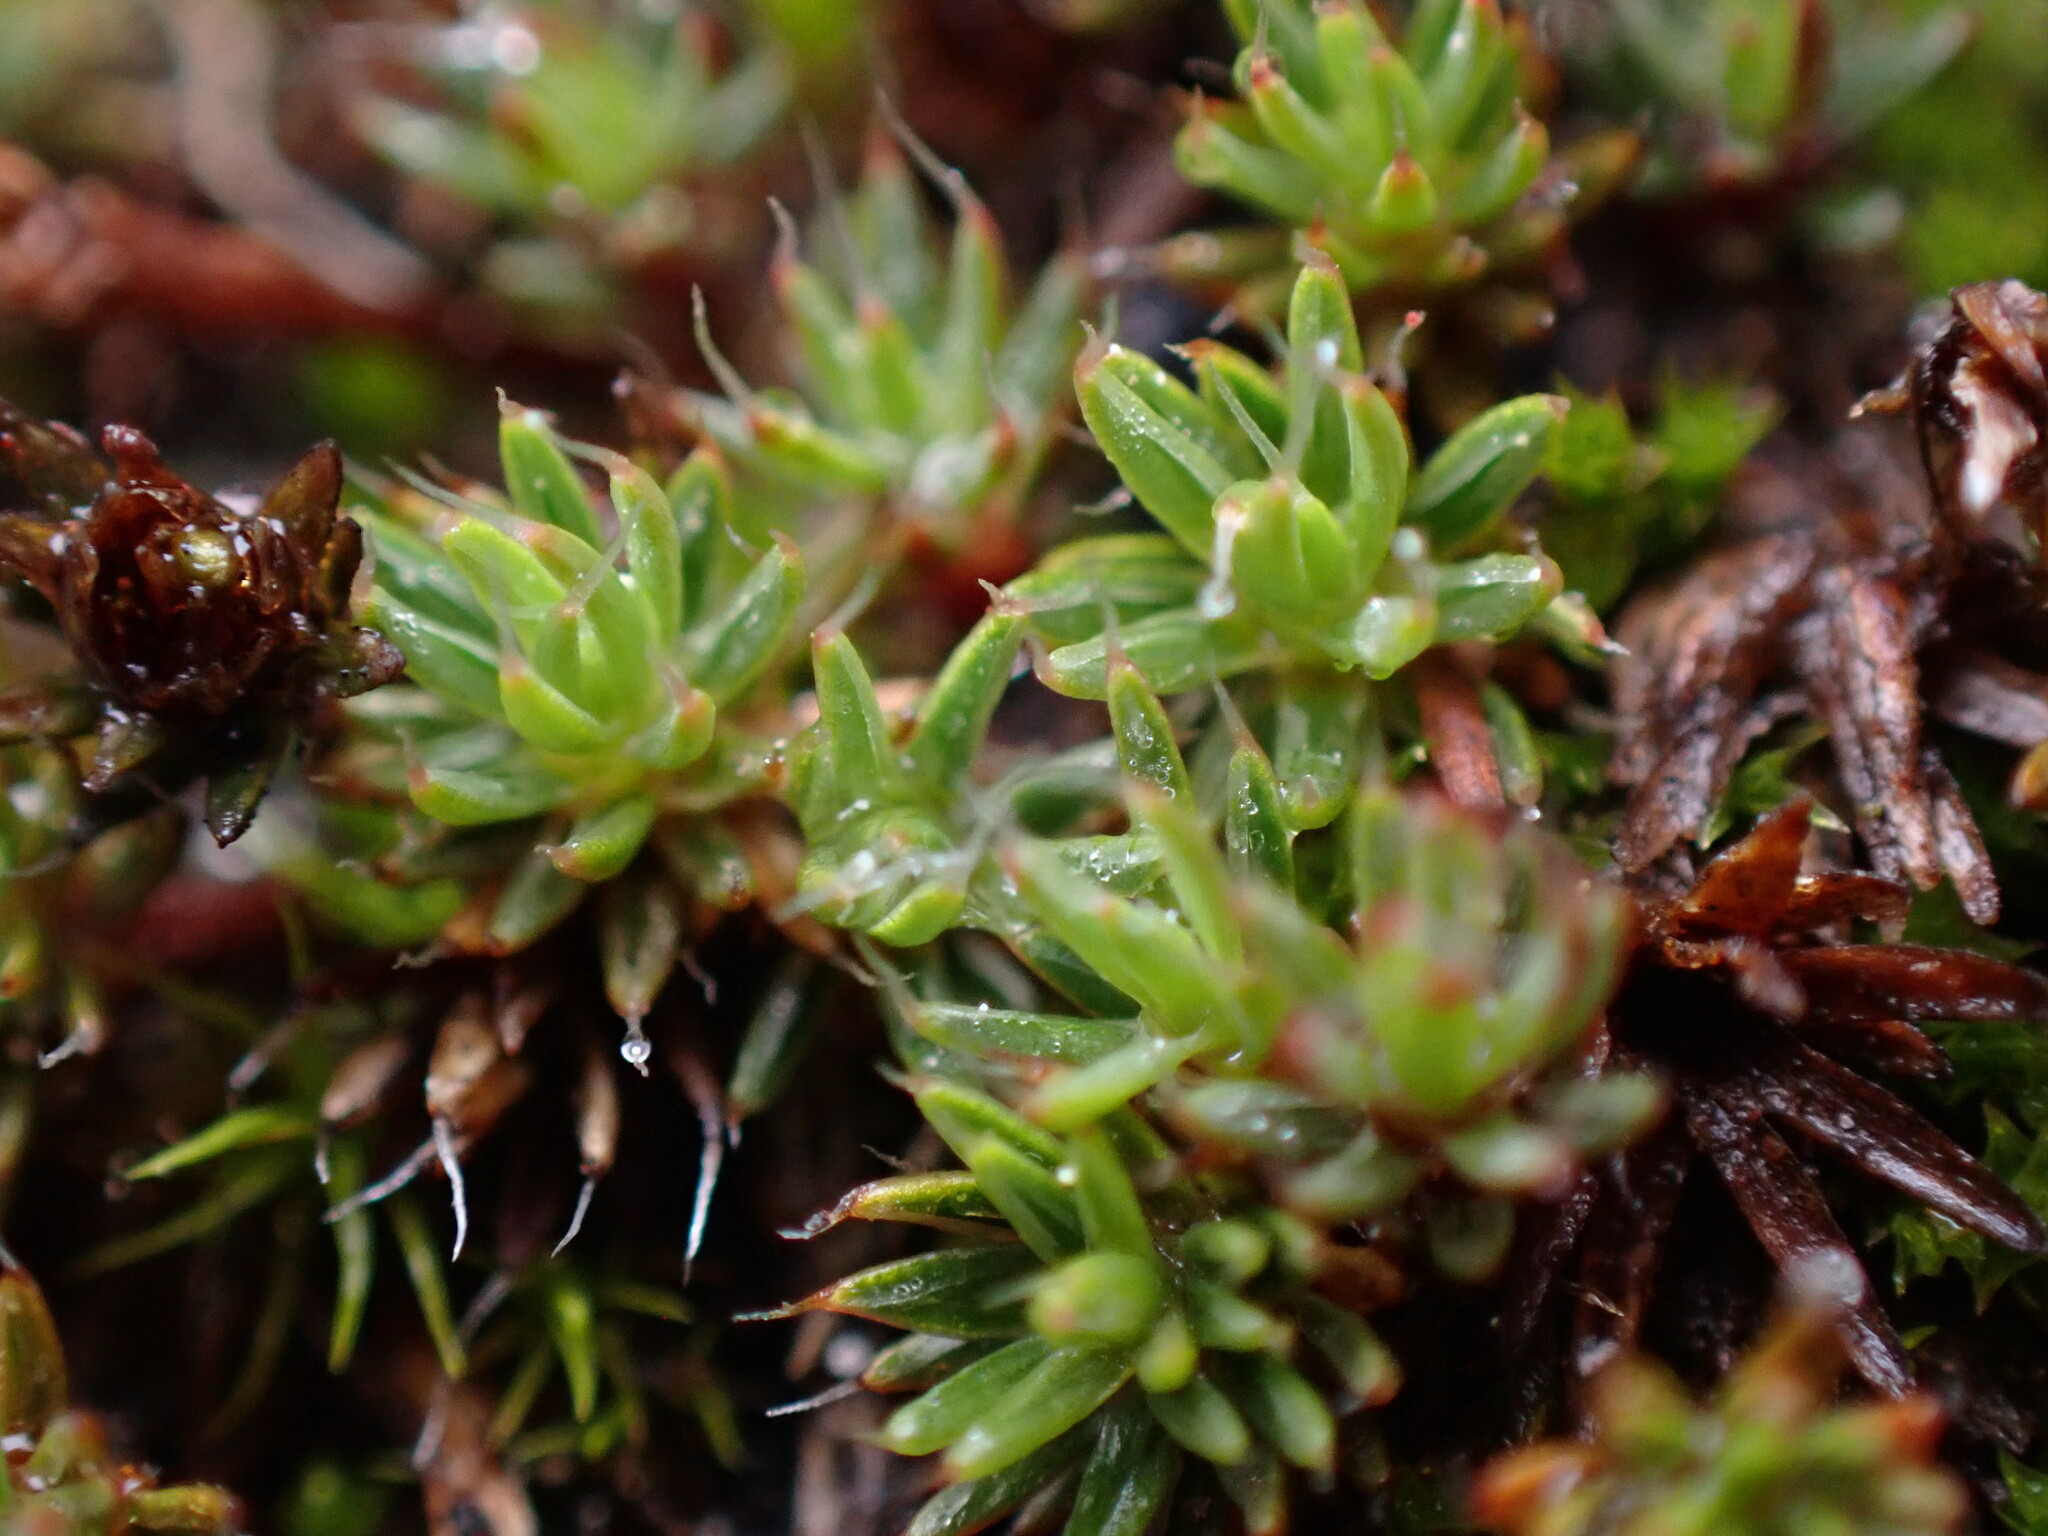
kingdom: Plantae
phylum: Bryophyta
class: Polytrichopsida
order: Polytrichales
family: Polytrichaceae
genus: Polytrichum
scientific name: Polytrichum piliferum
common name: Bristly haircap
